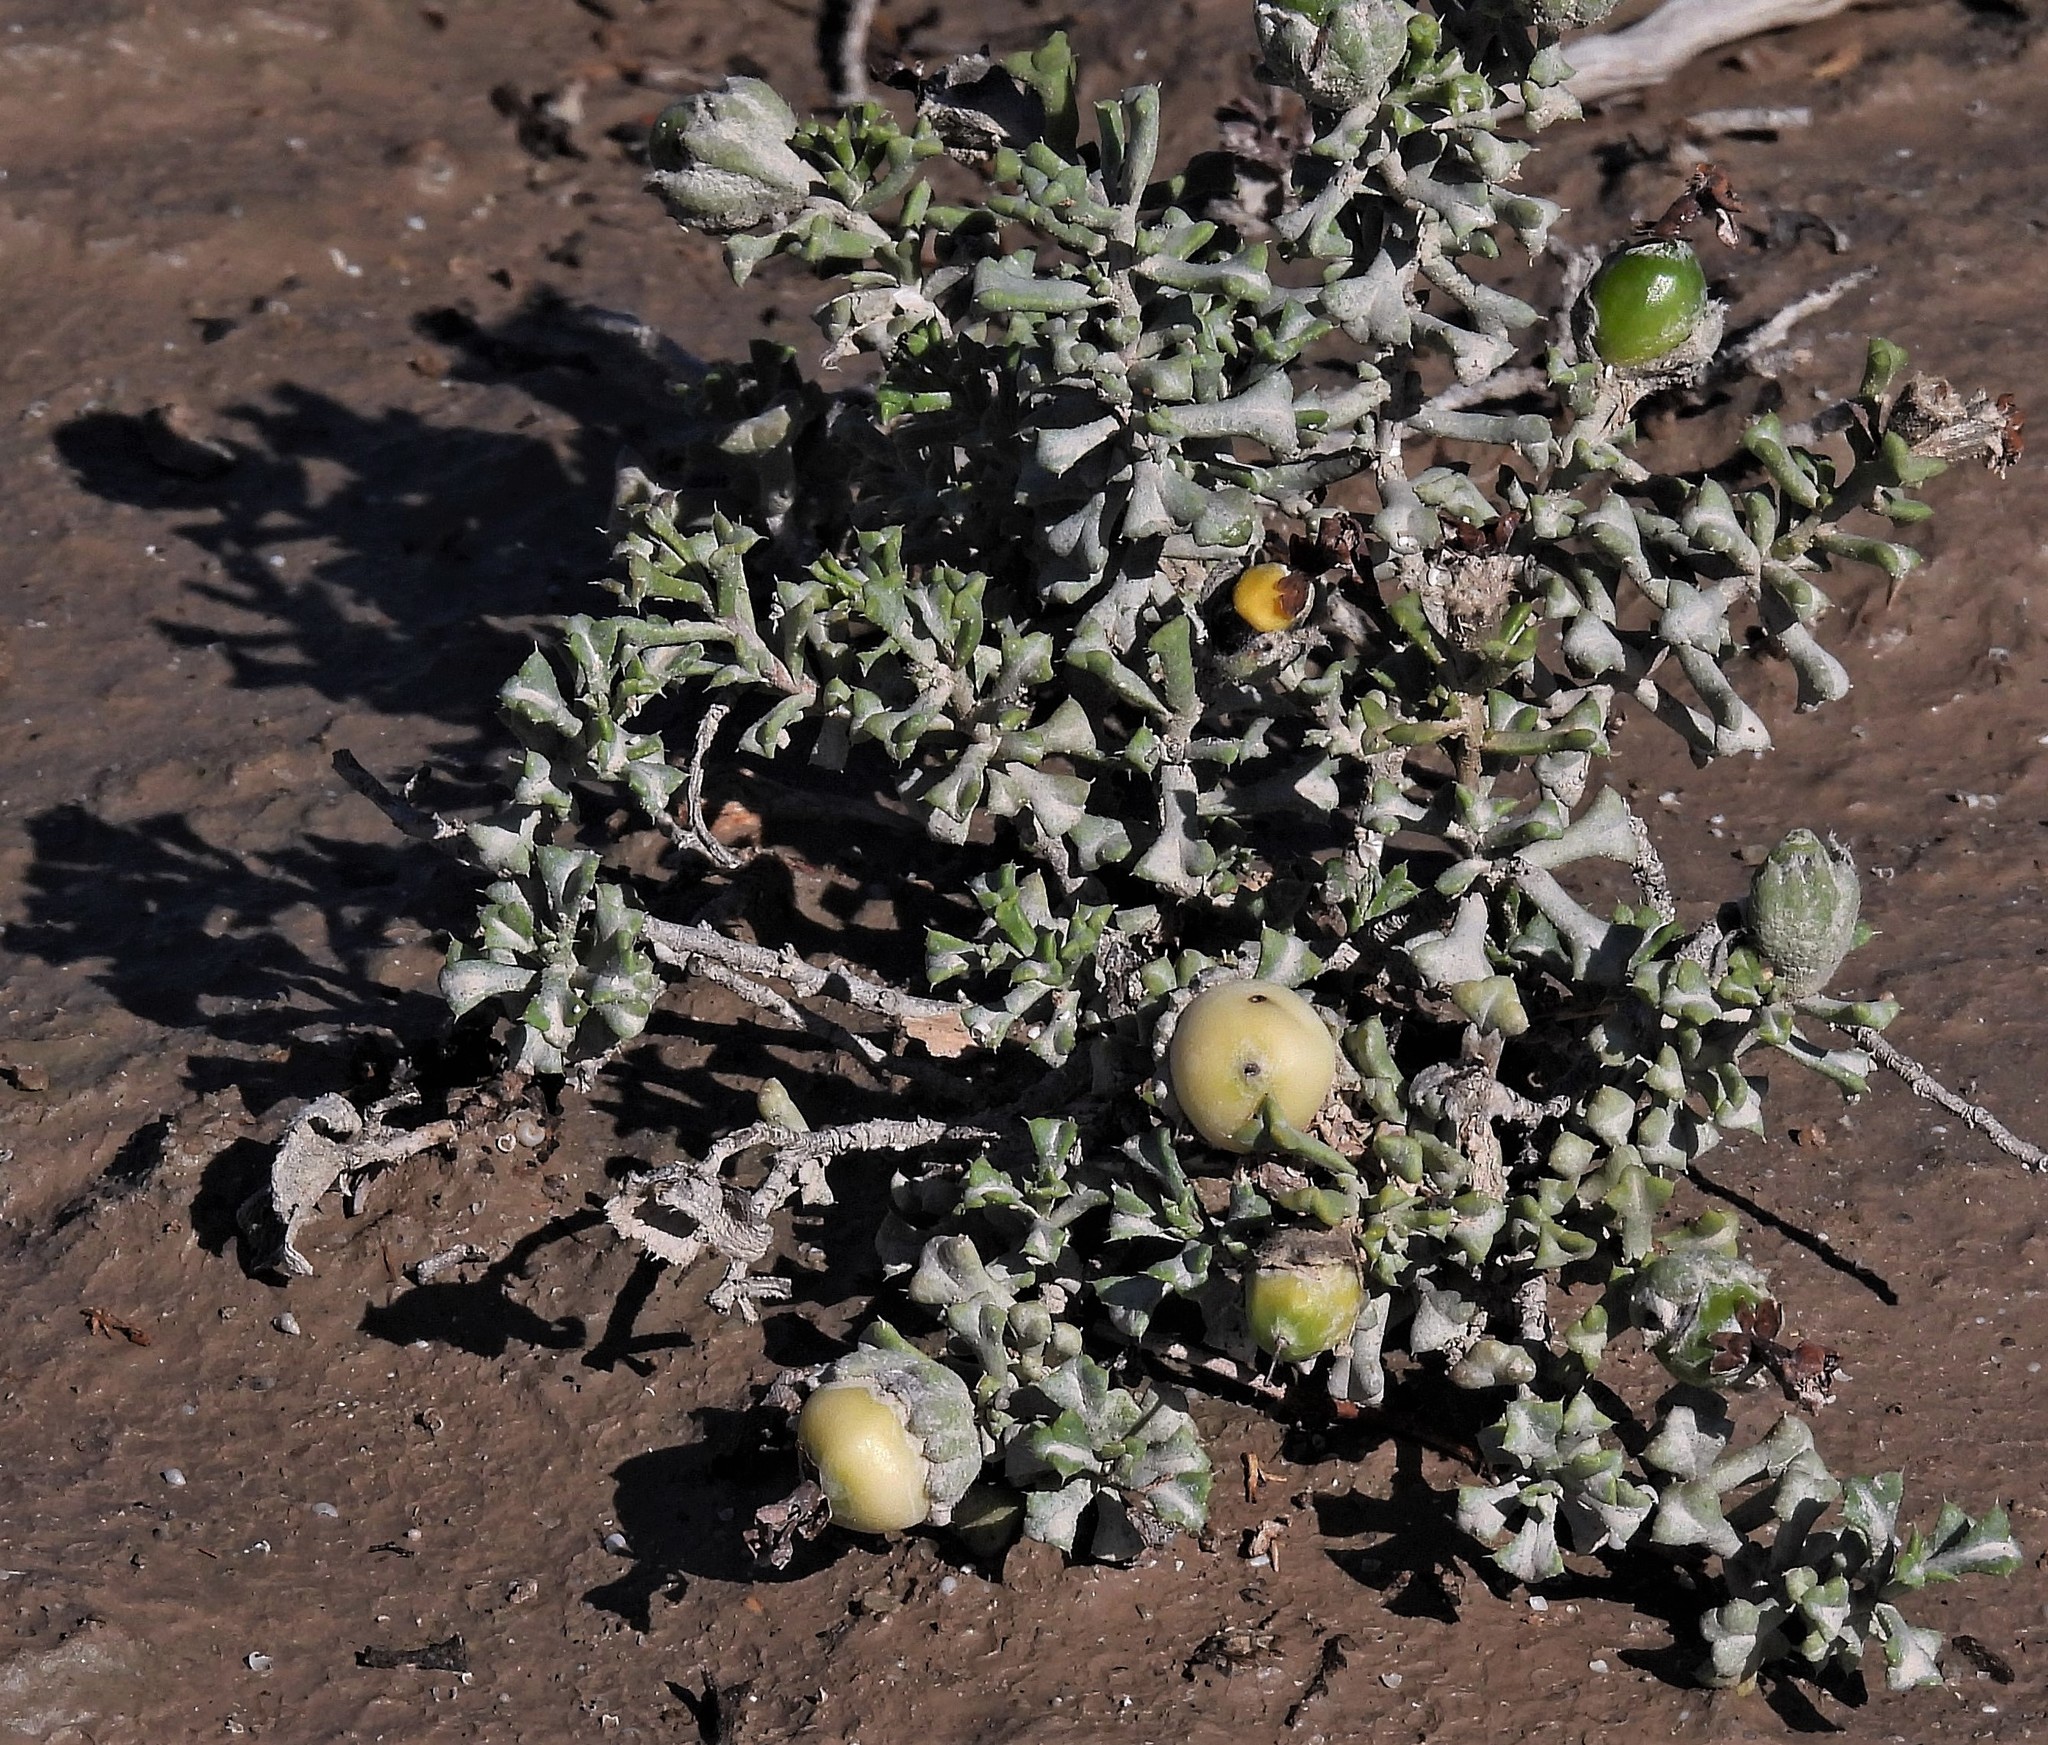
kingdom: Plantae
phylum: Tracheophyta
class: Magnoliopsida
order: Boraginales
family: Ehretiaceae
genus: Ehretia
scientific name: Ehretia cortesia
